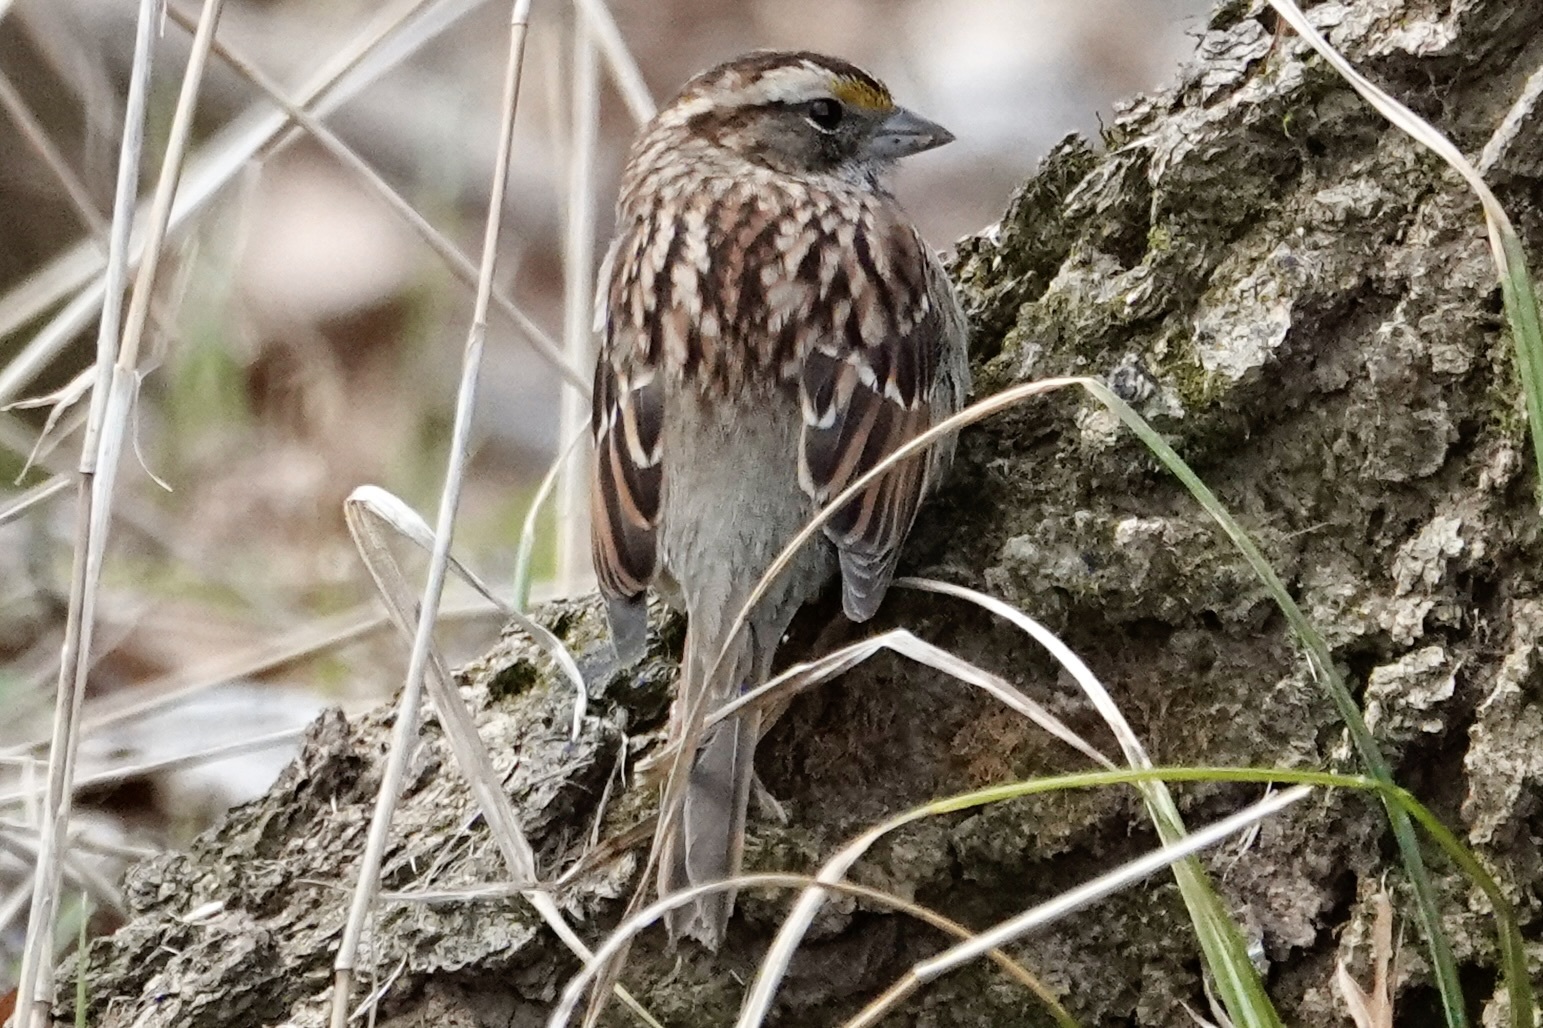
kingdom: Animalia
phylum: Chordata
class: Aves
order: Passeriformes
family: Passerellidae
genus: Zonotrichia
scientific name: Zonotrichia albicollis
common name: White-throated sparrow
